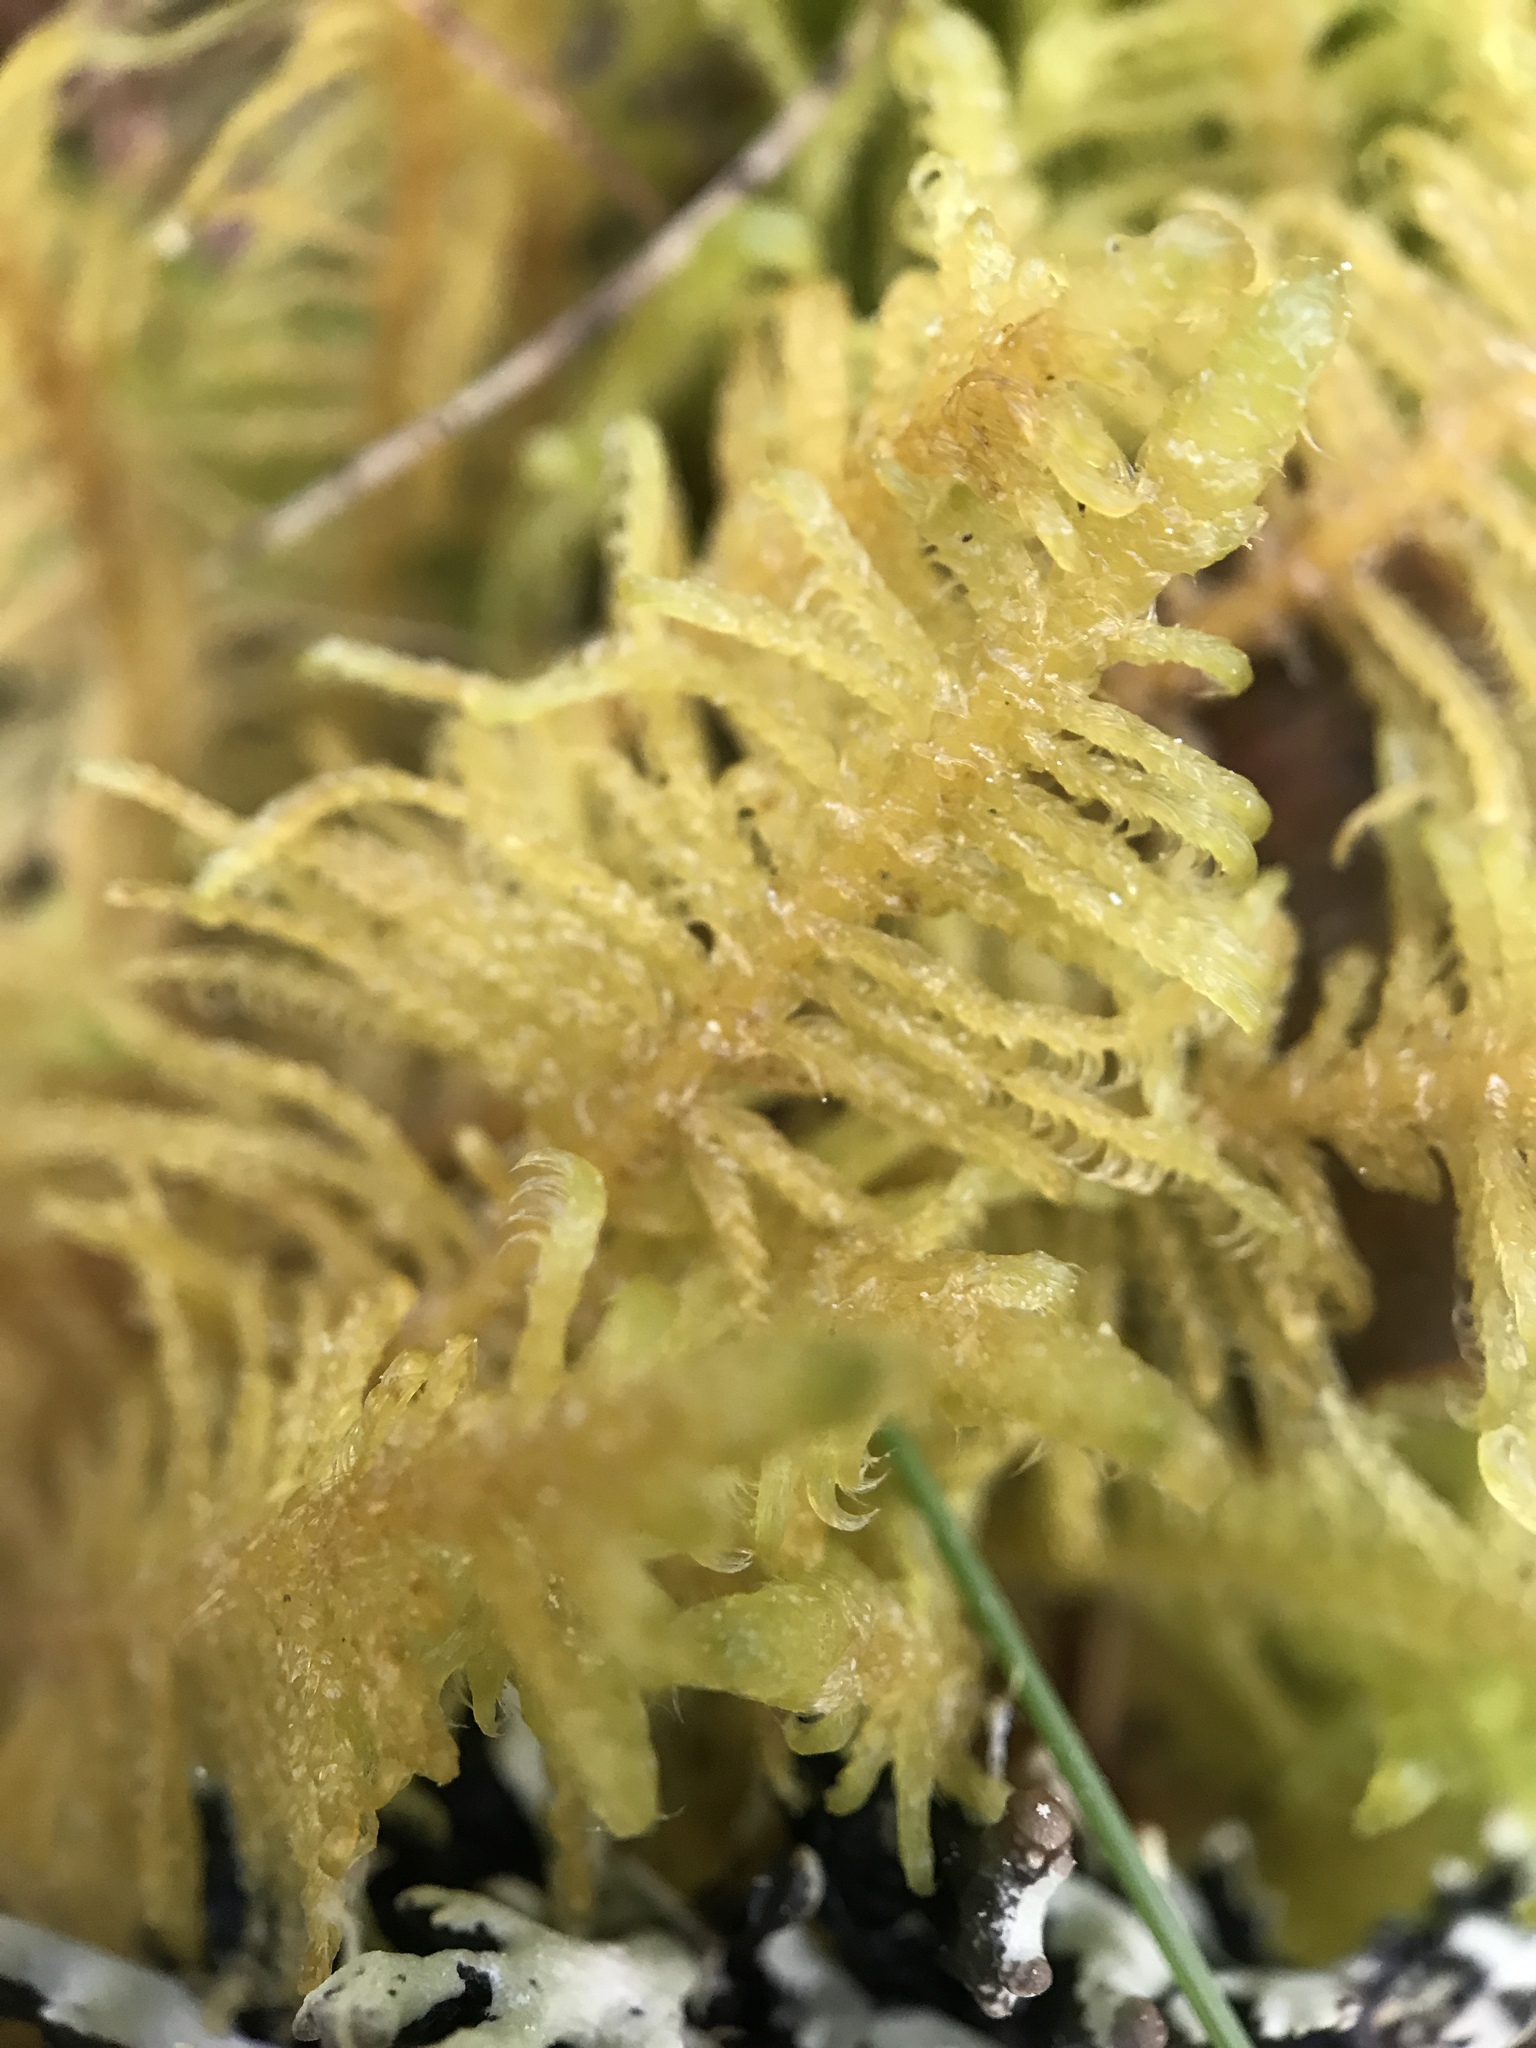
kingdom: Plantae
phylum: Bryophyta
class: Bryopsida
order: Hypnales
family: Pylaisiaceae
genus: Ptilium
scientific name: Ptilium crista-castrensis
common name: Knight's plume moss
